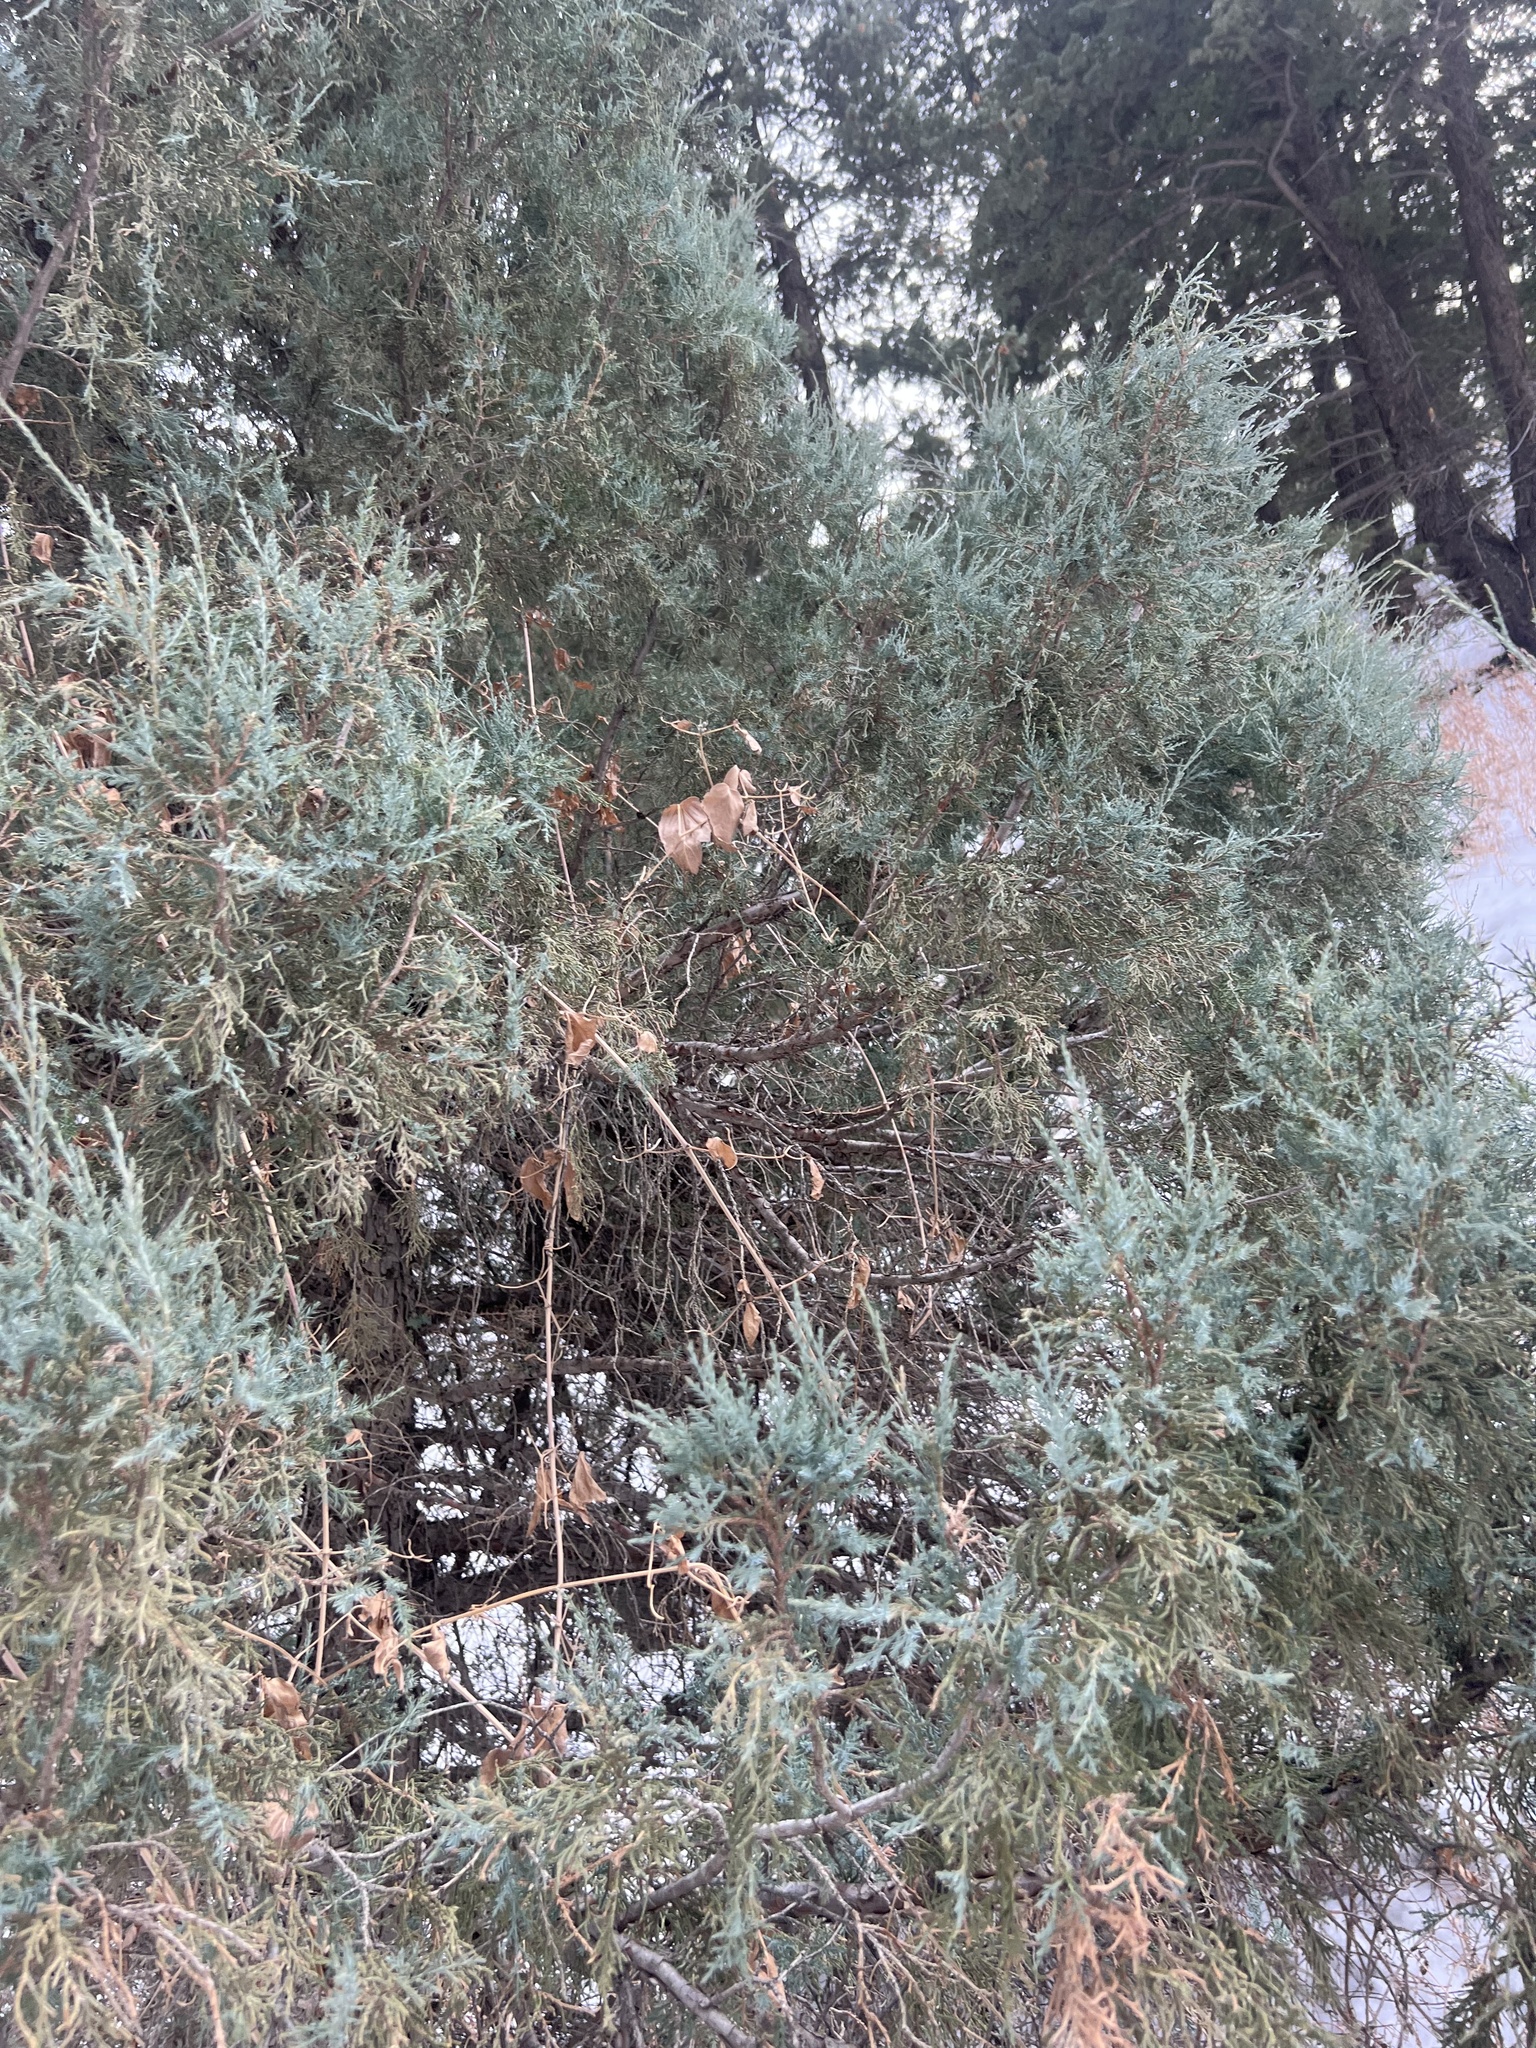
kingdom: Plantae
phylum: Tracheophyta
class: Pinopsida
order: Pinales
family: Cupressaceae
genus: Juniperus
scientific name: Juniperus scopulorum
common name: Rocky mountain juniper
